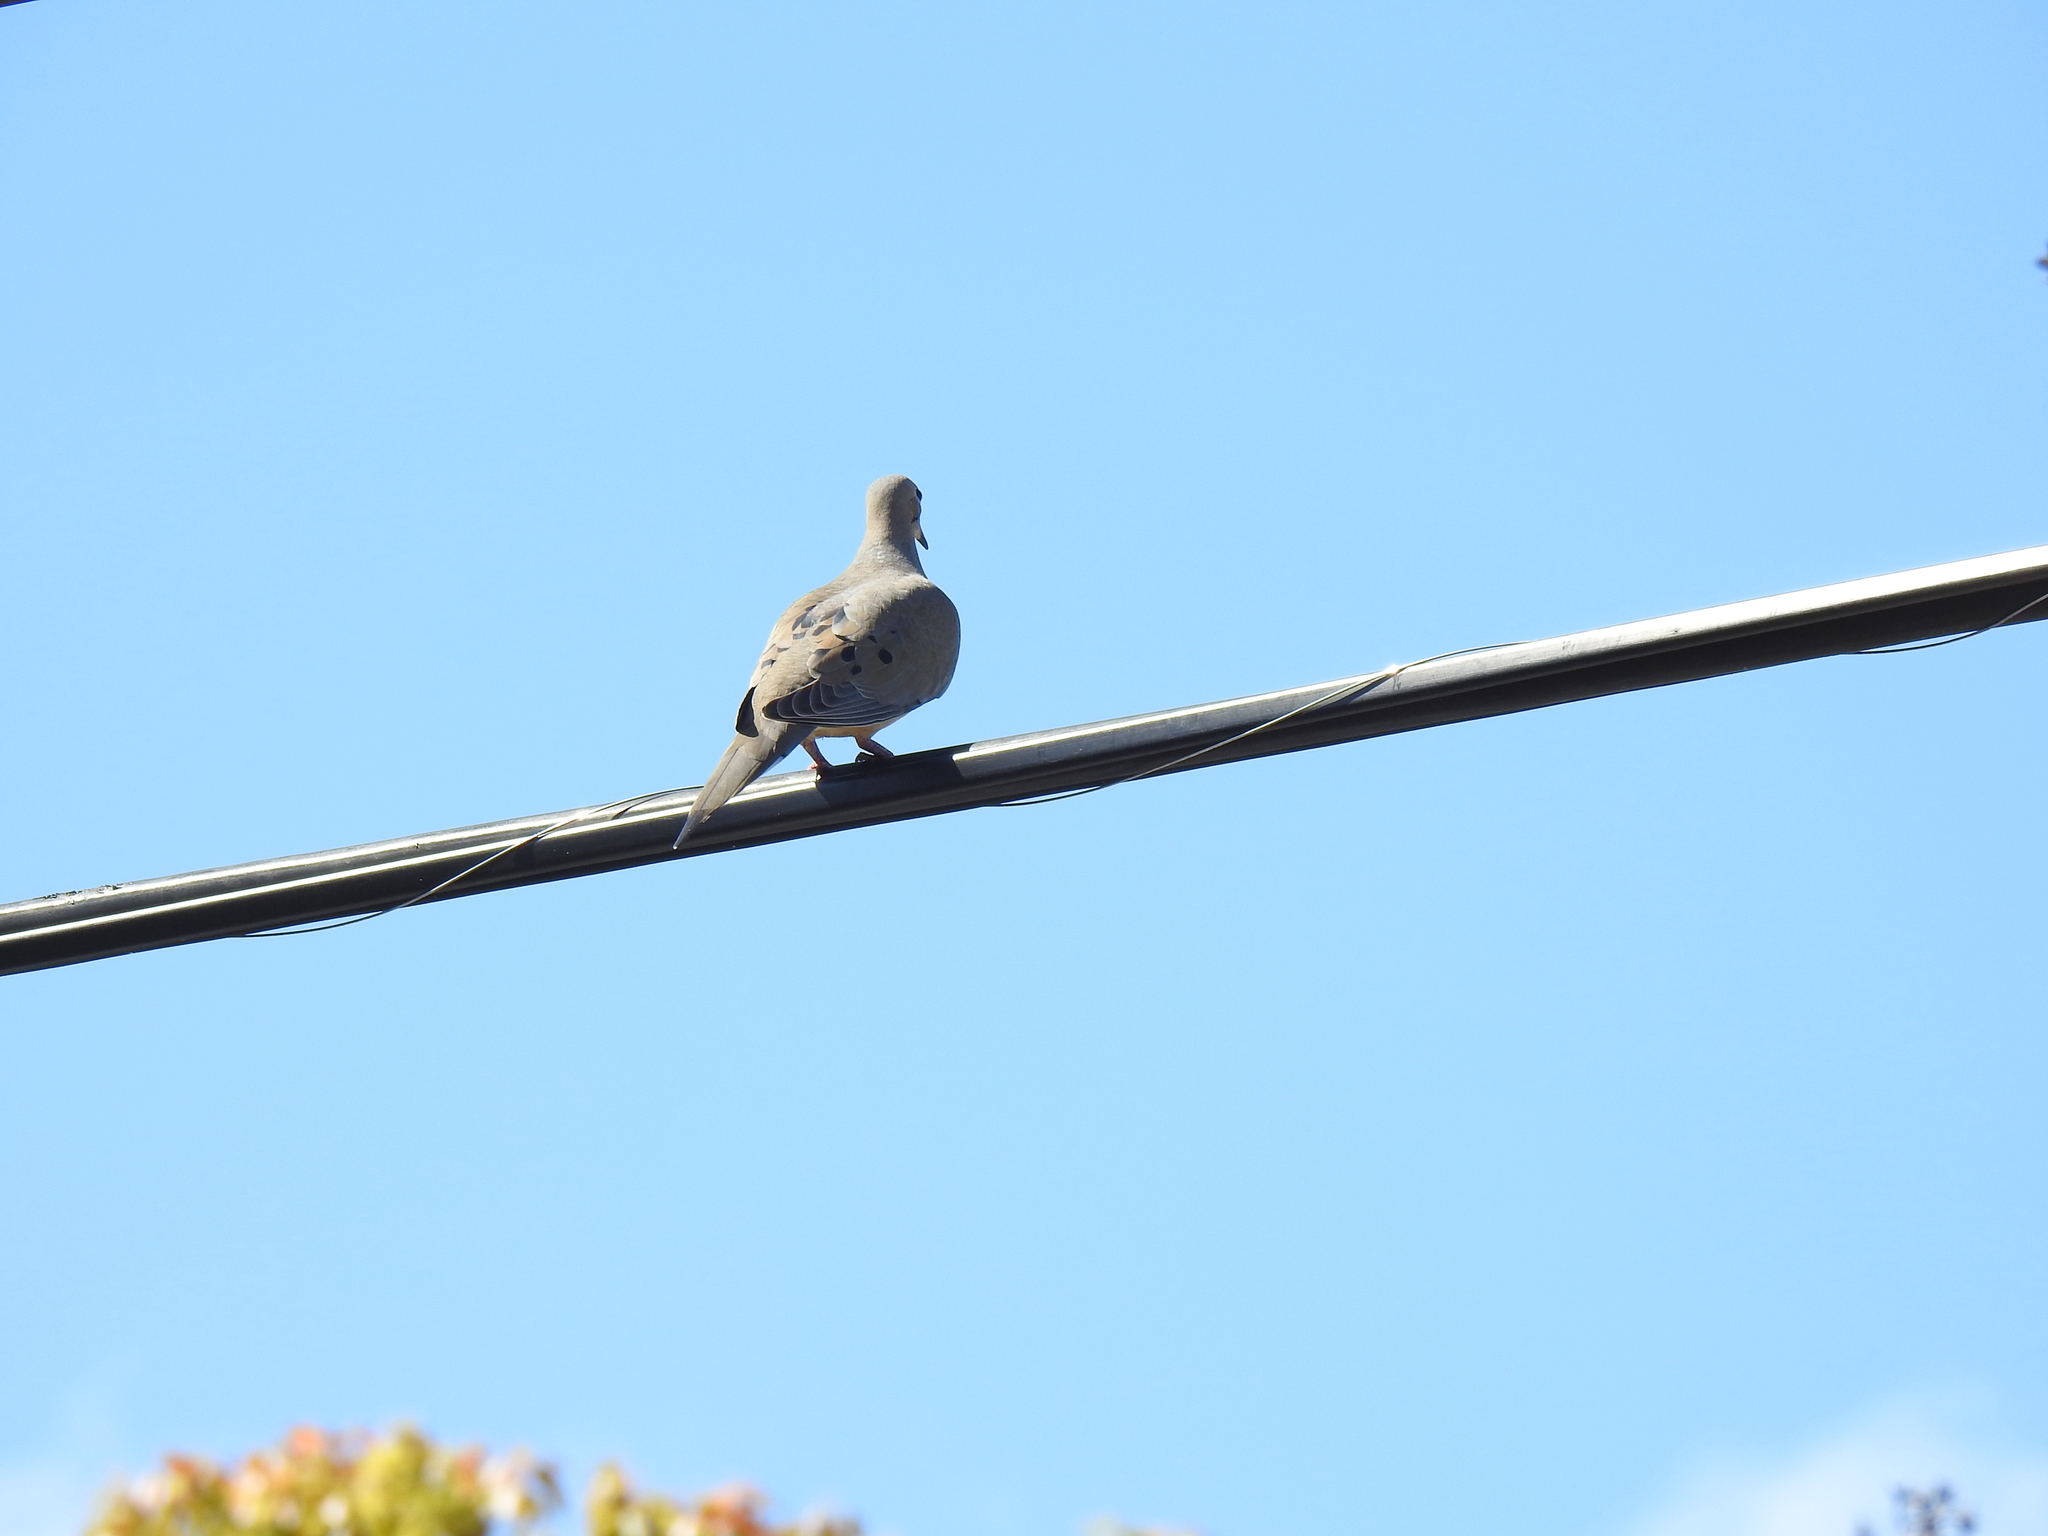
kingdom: Animalia
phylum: Chordata
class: Aves
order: Columbiformes
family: Columbidae
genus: Zenaida
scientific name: Zenaida macroura
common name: Mourning dove
